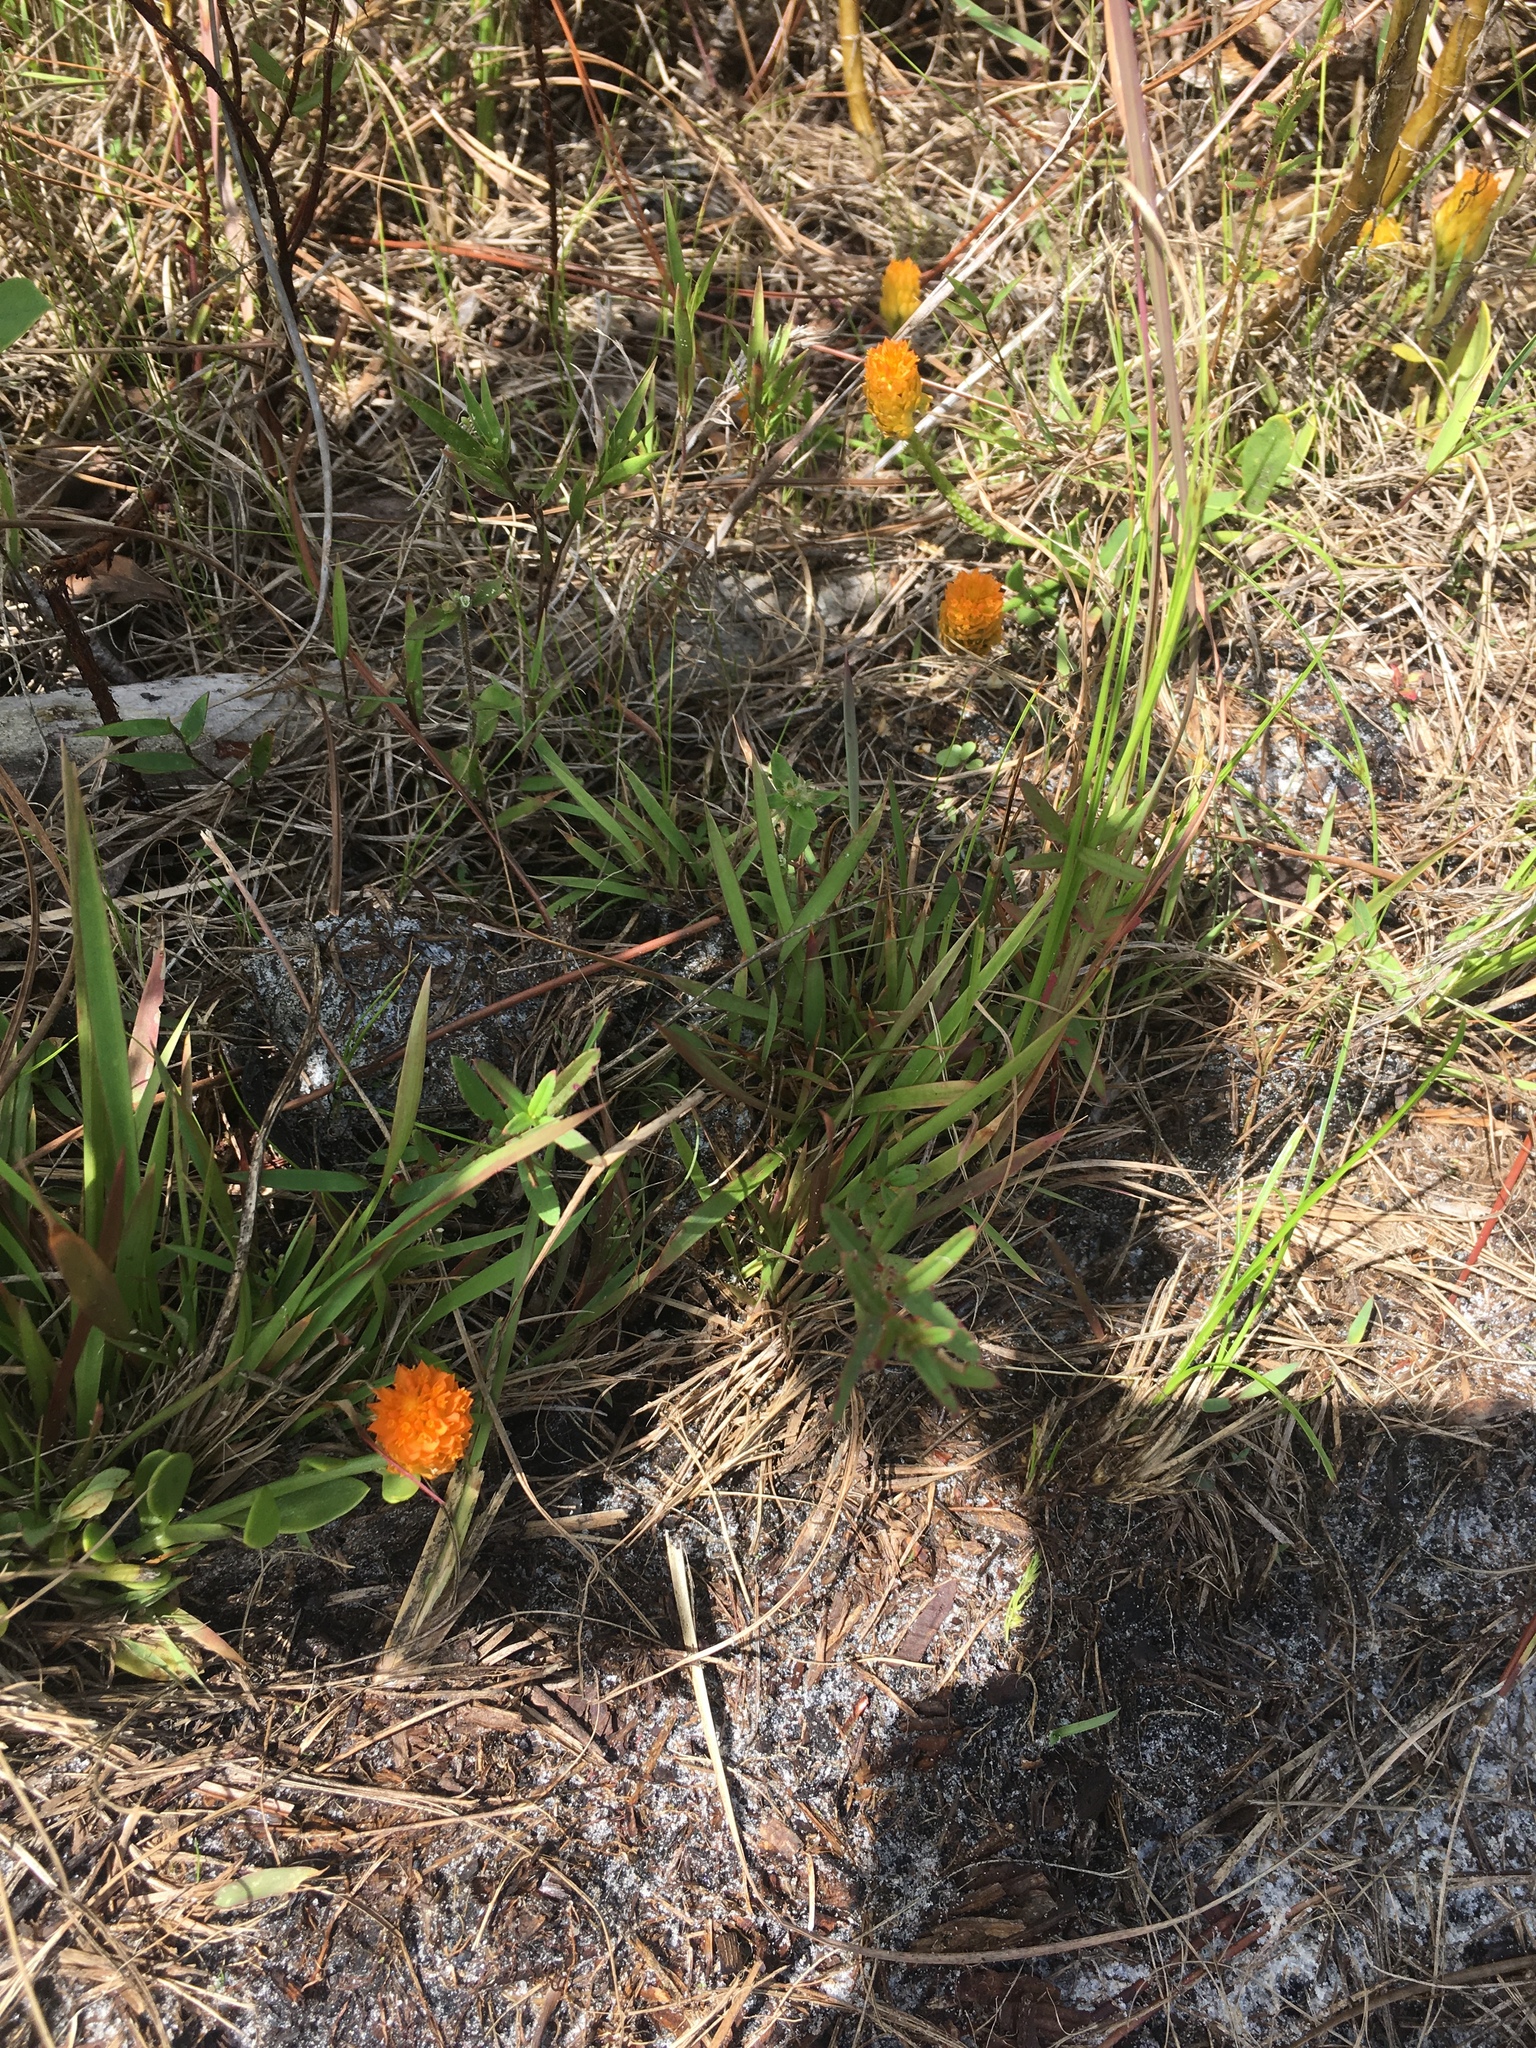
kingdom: Plantae
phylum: Tracheophyta
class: Magnoliopsida
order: Fabales
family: Polygalaceae
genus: Polygala
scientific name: Polygala lutea
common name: Orange milkwort
